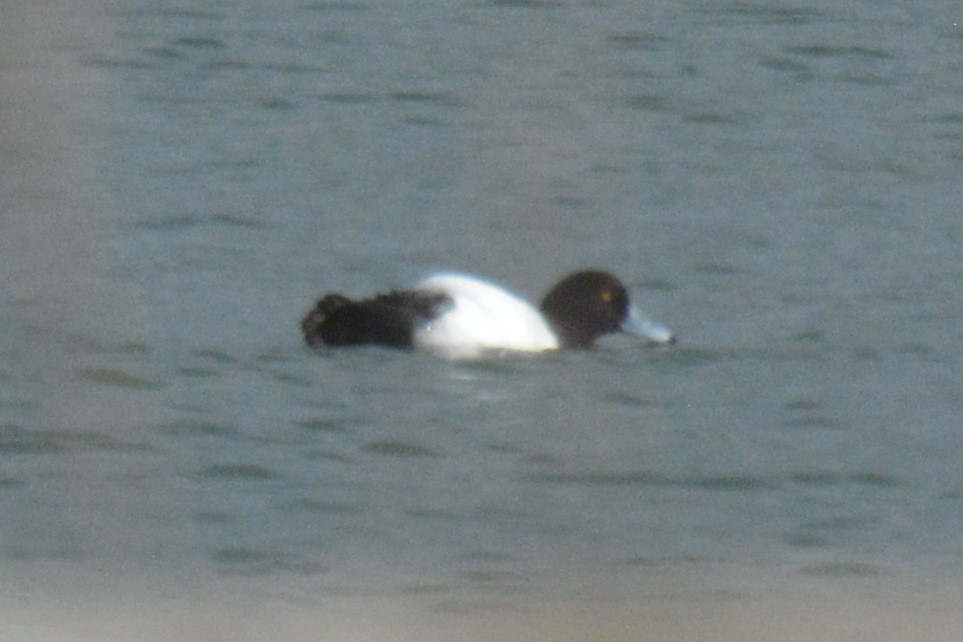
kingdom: Animalia
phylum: Chordata
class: Aves
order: Anseriformes
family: Anatidae
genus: Aythya
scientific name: Aythya fuligula
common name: Tufted duck
